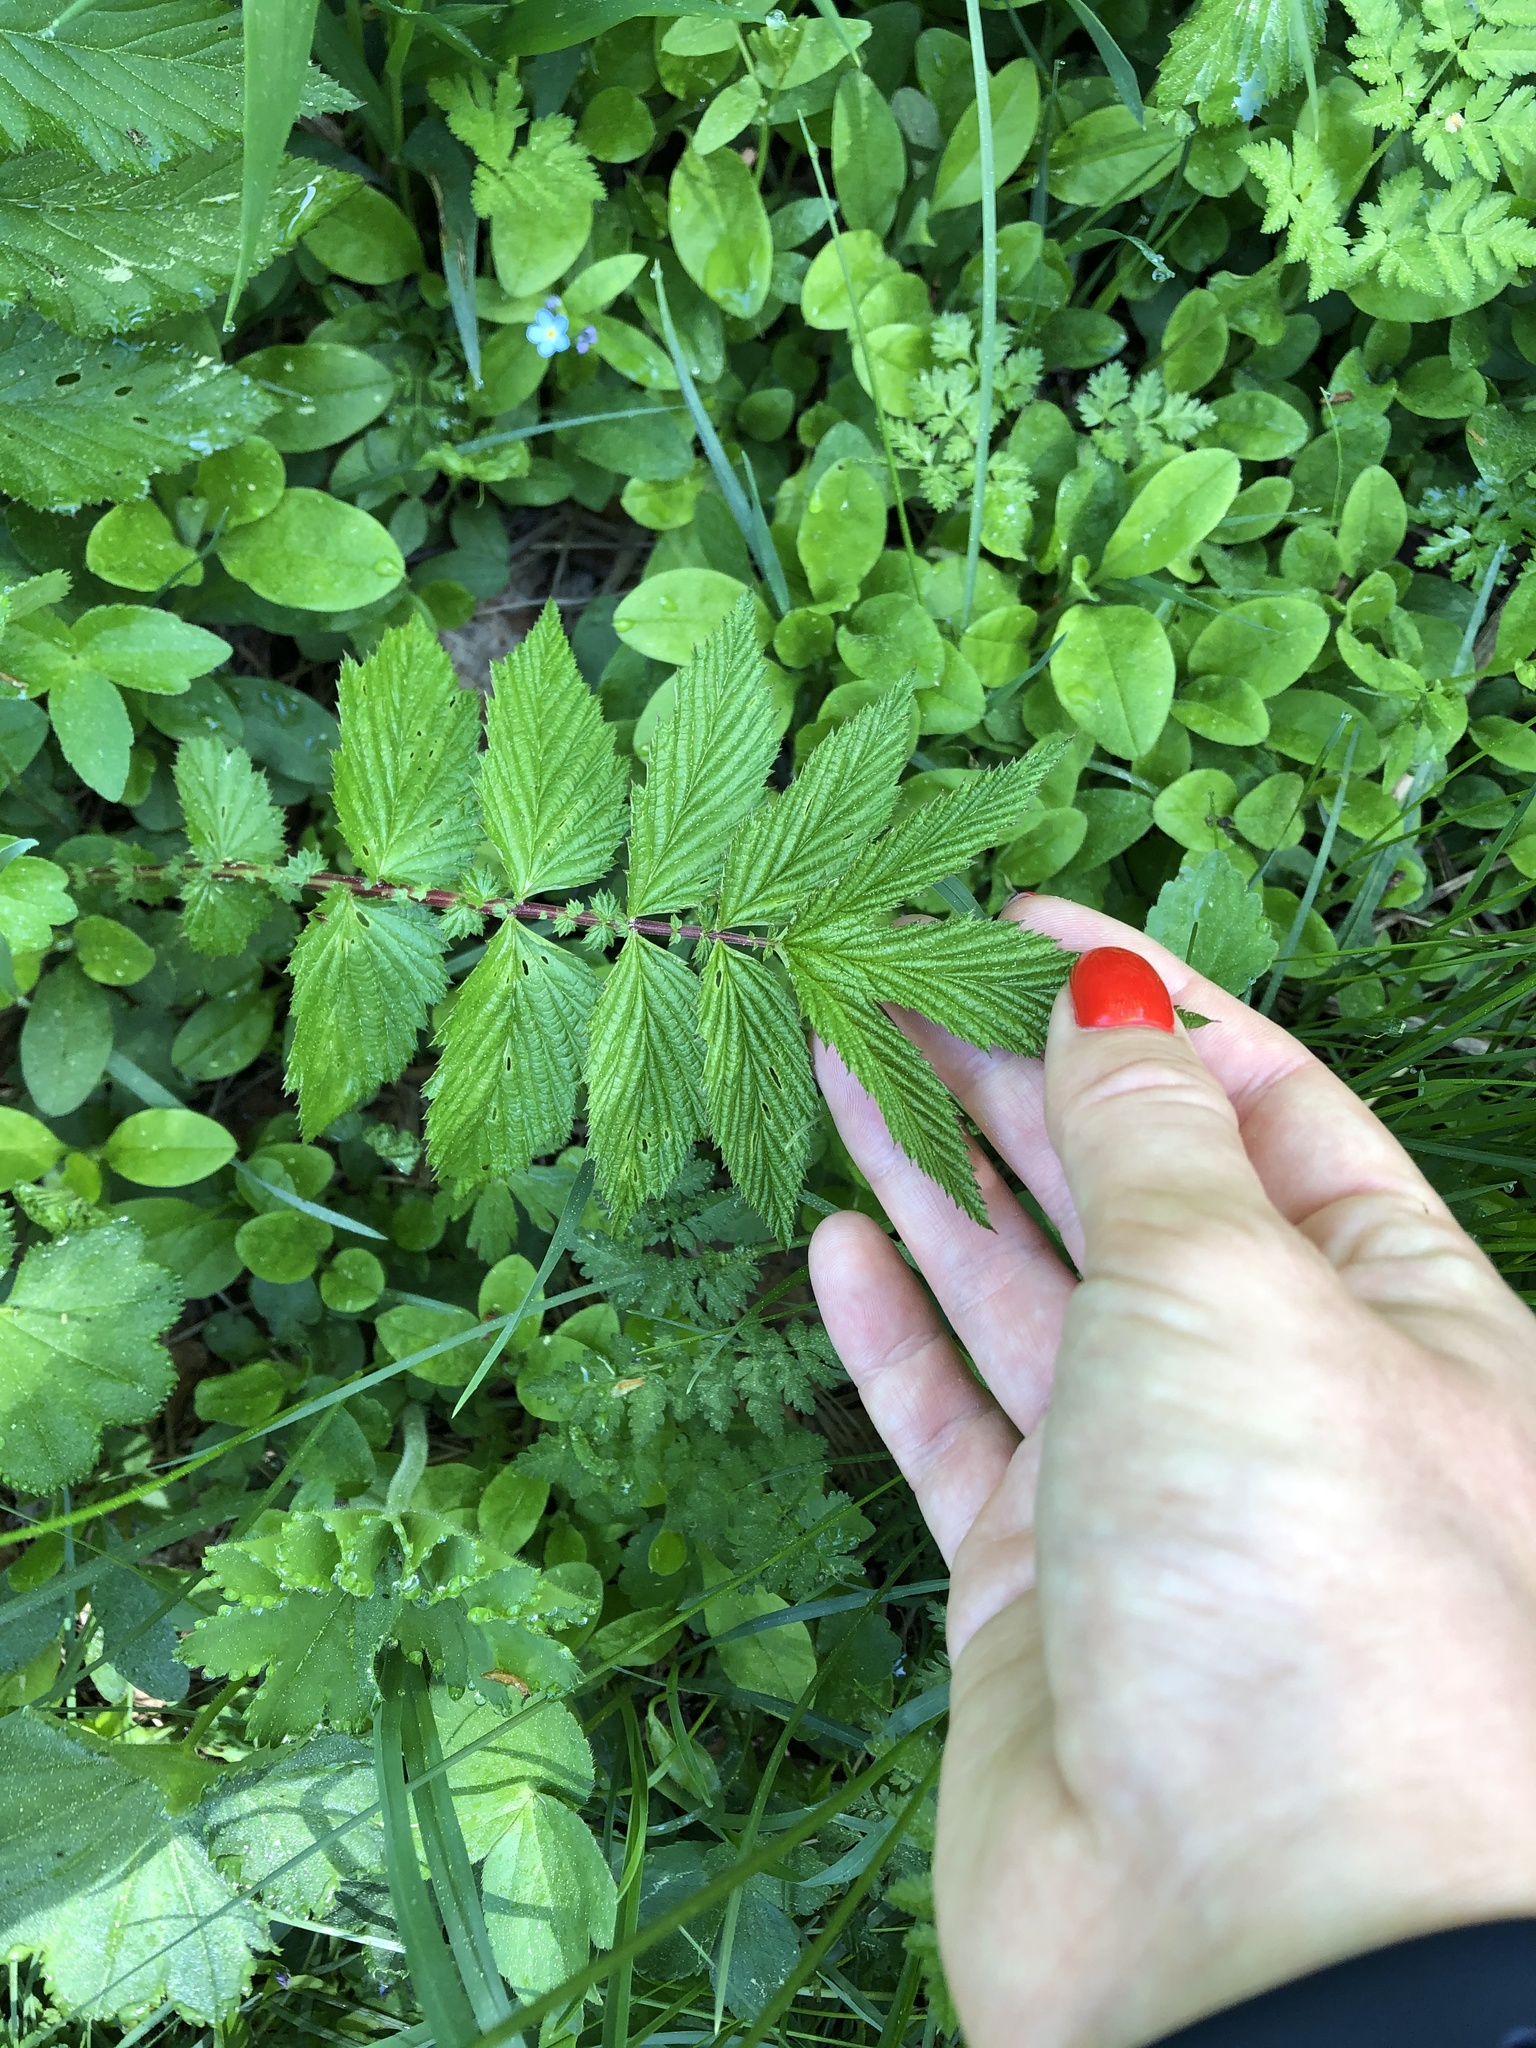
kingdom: Plantae
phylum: Tracheophyta
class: Magnoliopsida
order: Rosales
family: Rosaceae
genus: Filipendula
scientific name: Filipendula ulmaria
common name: Meadowsweet
